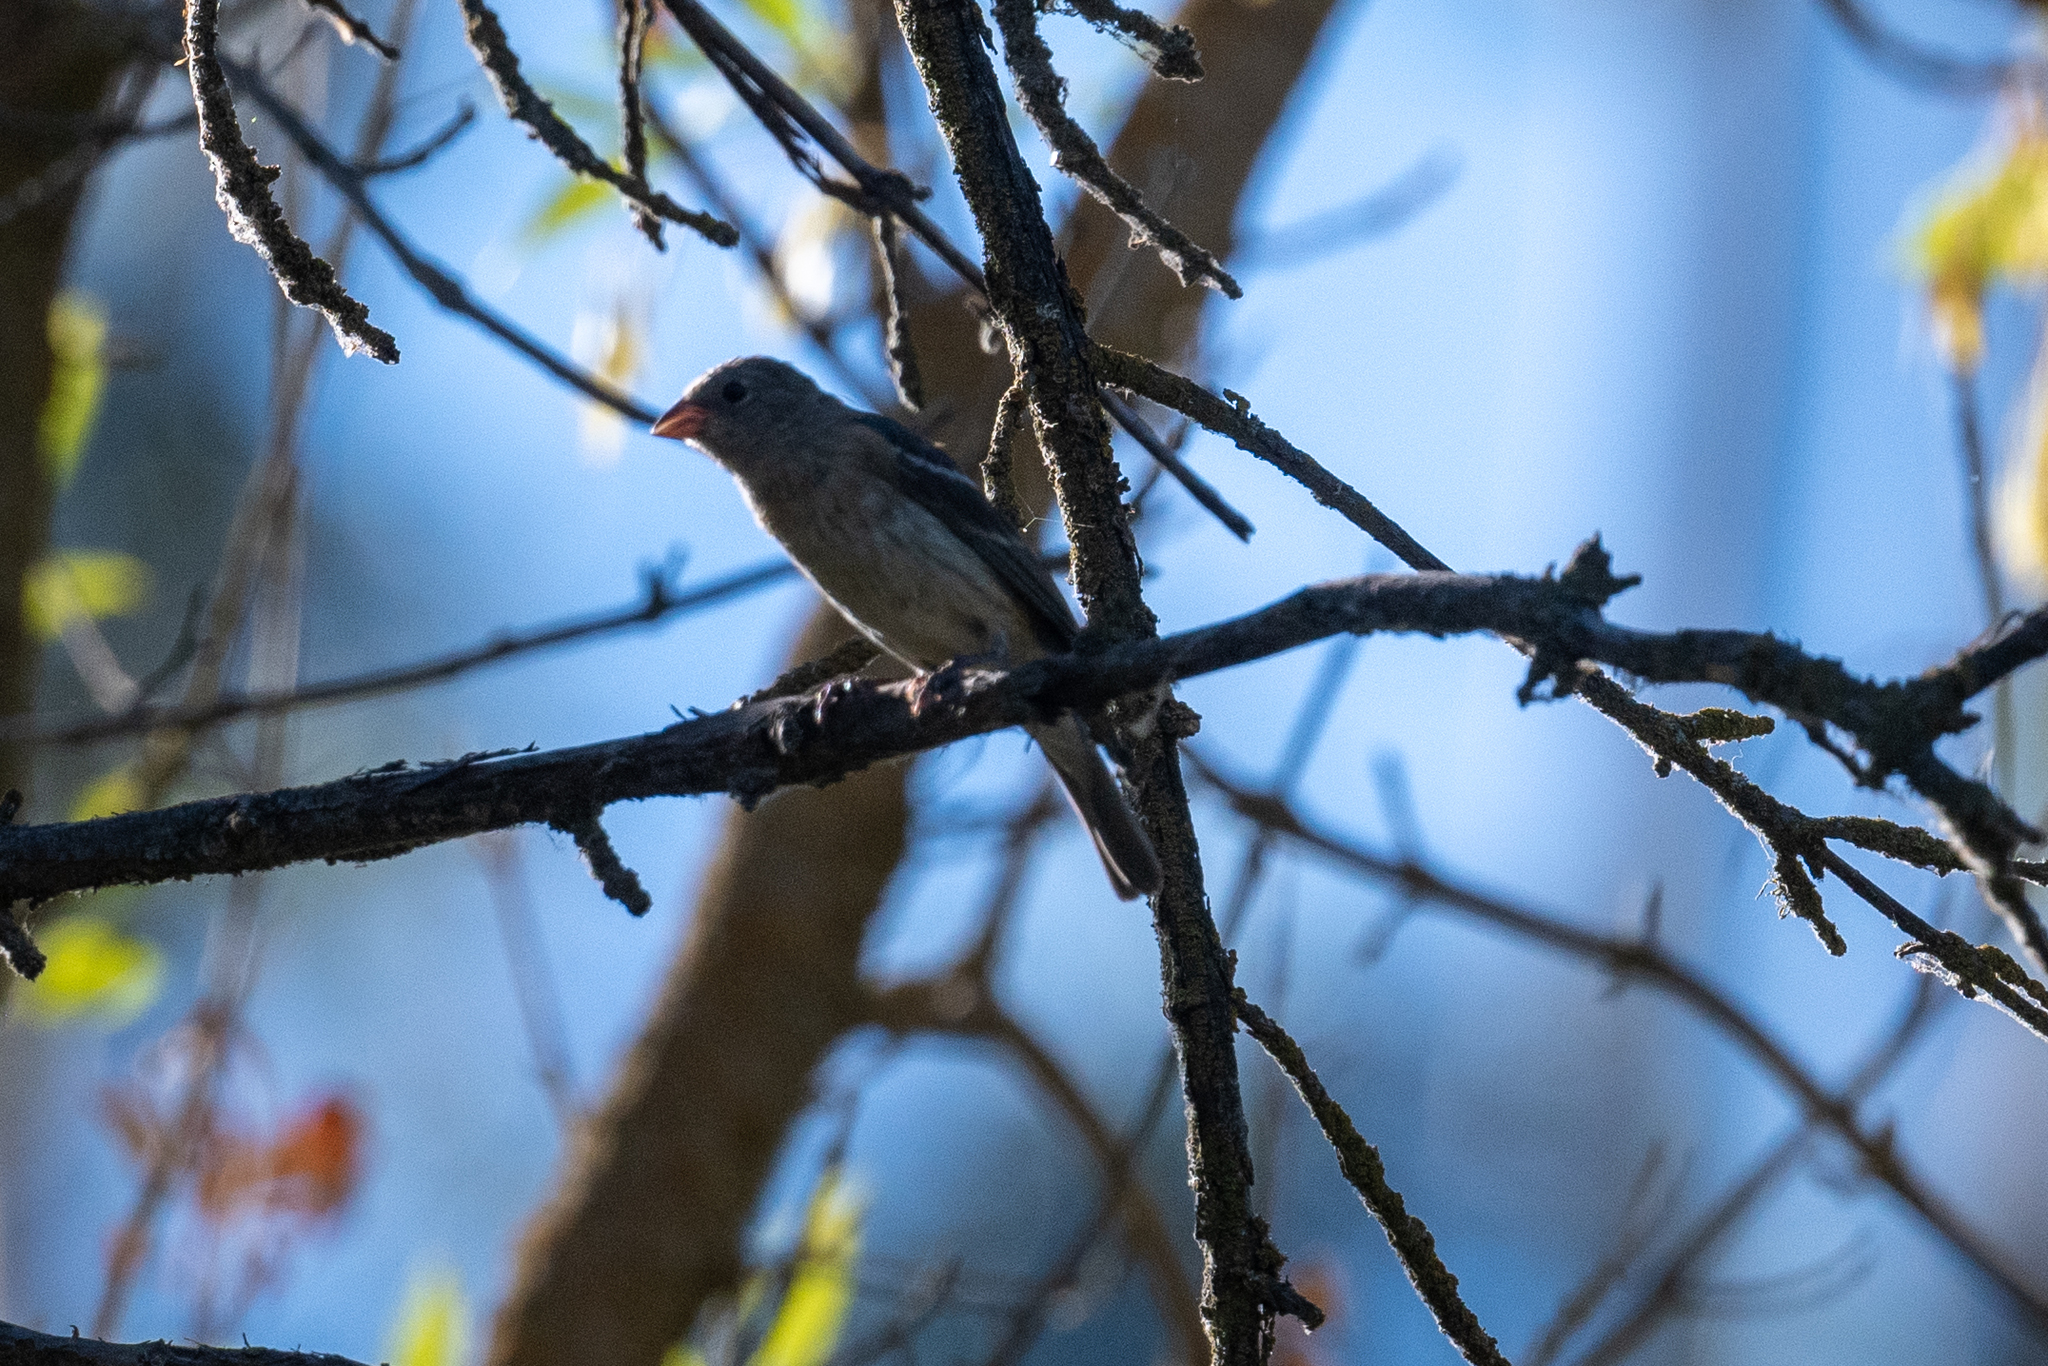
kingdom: Animalia
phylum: Chordata
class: Aves
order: Passeriformes
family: Cardinalidae
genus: Passerina
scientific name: Passerina amoena
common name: Lazuli bunting
